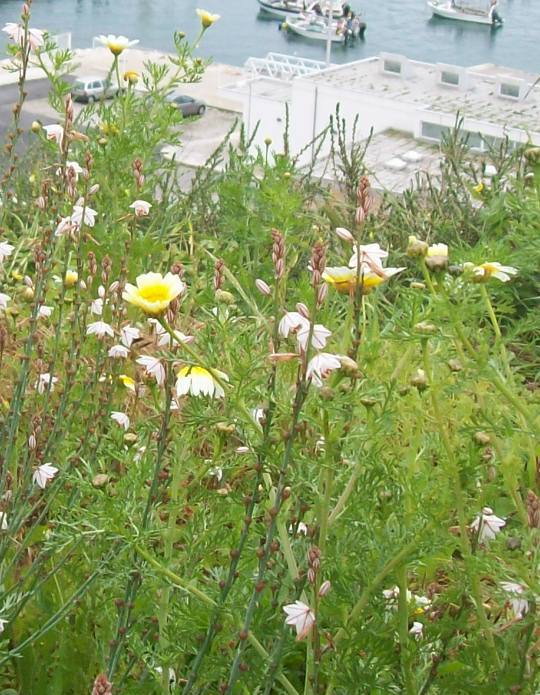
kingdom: Plantae
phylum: Tracheophyta
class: Magnoliopsida
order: Asterales
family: Asteraceae
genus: Glebionis
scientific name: Glebionis coronaria
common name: Crowndaisy
